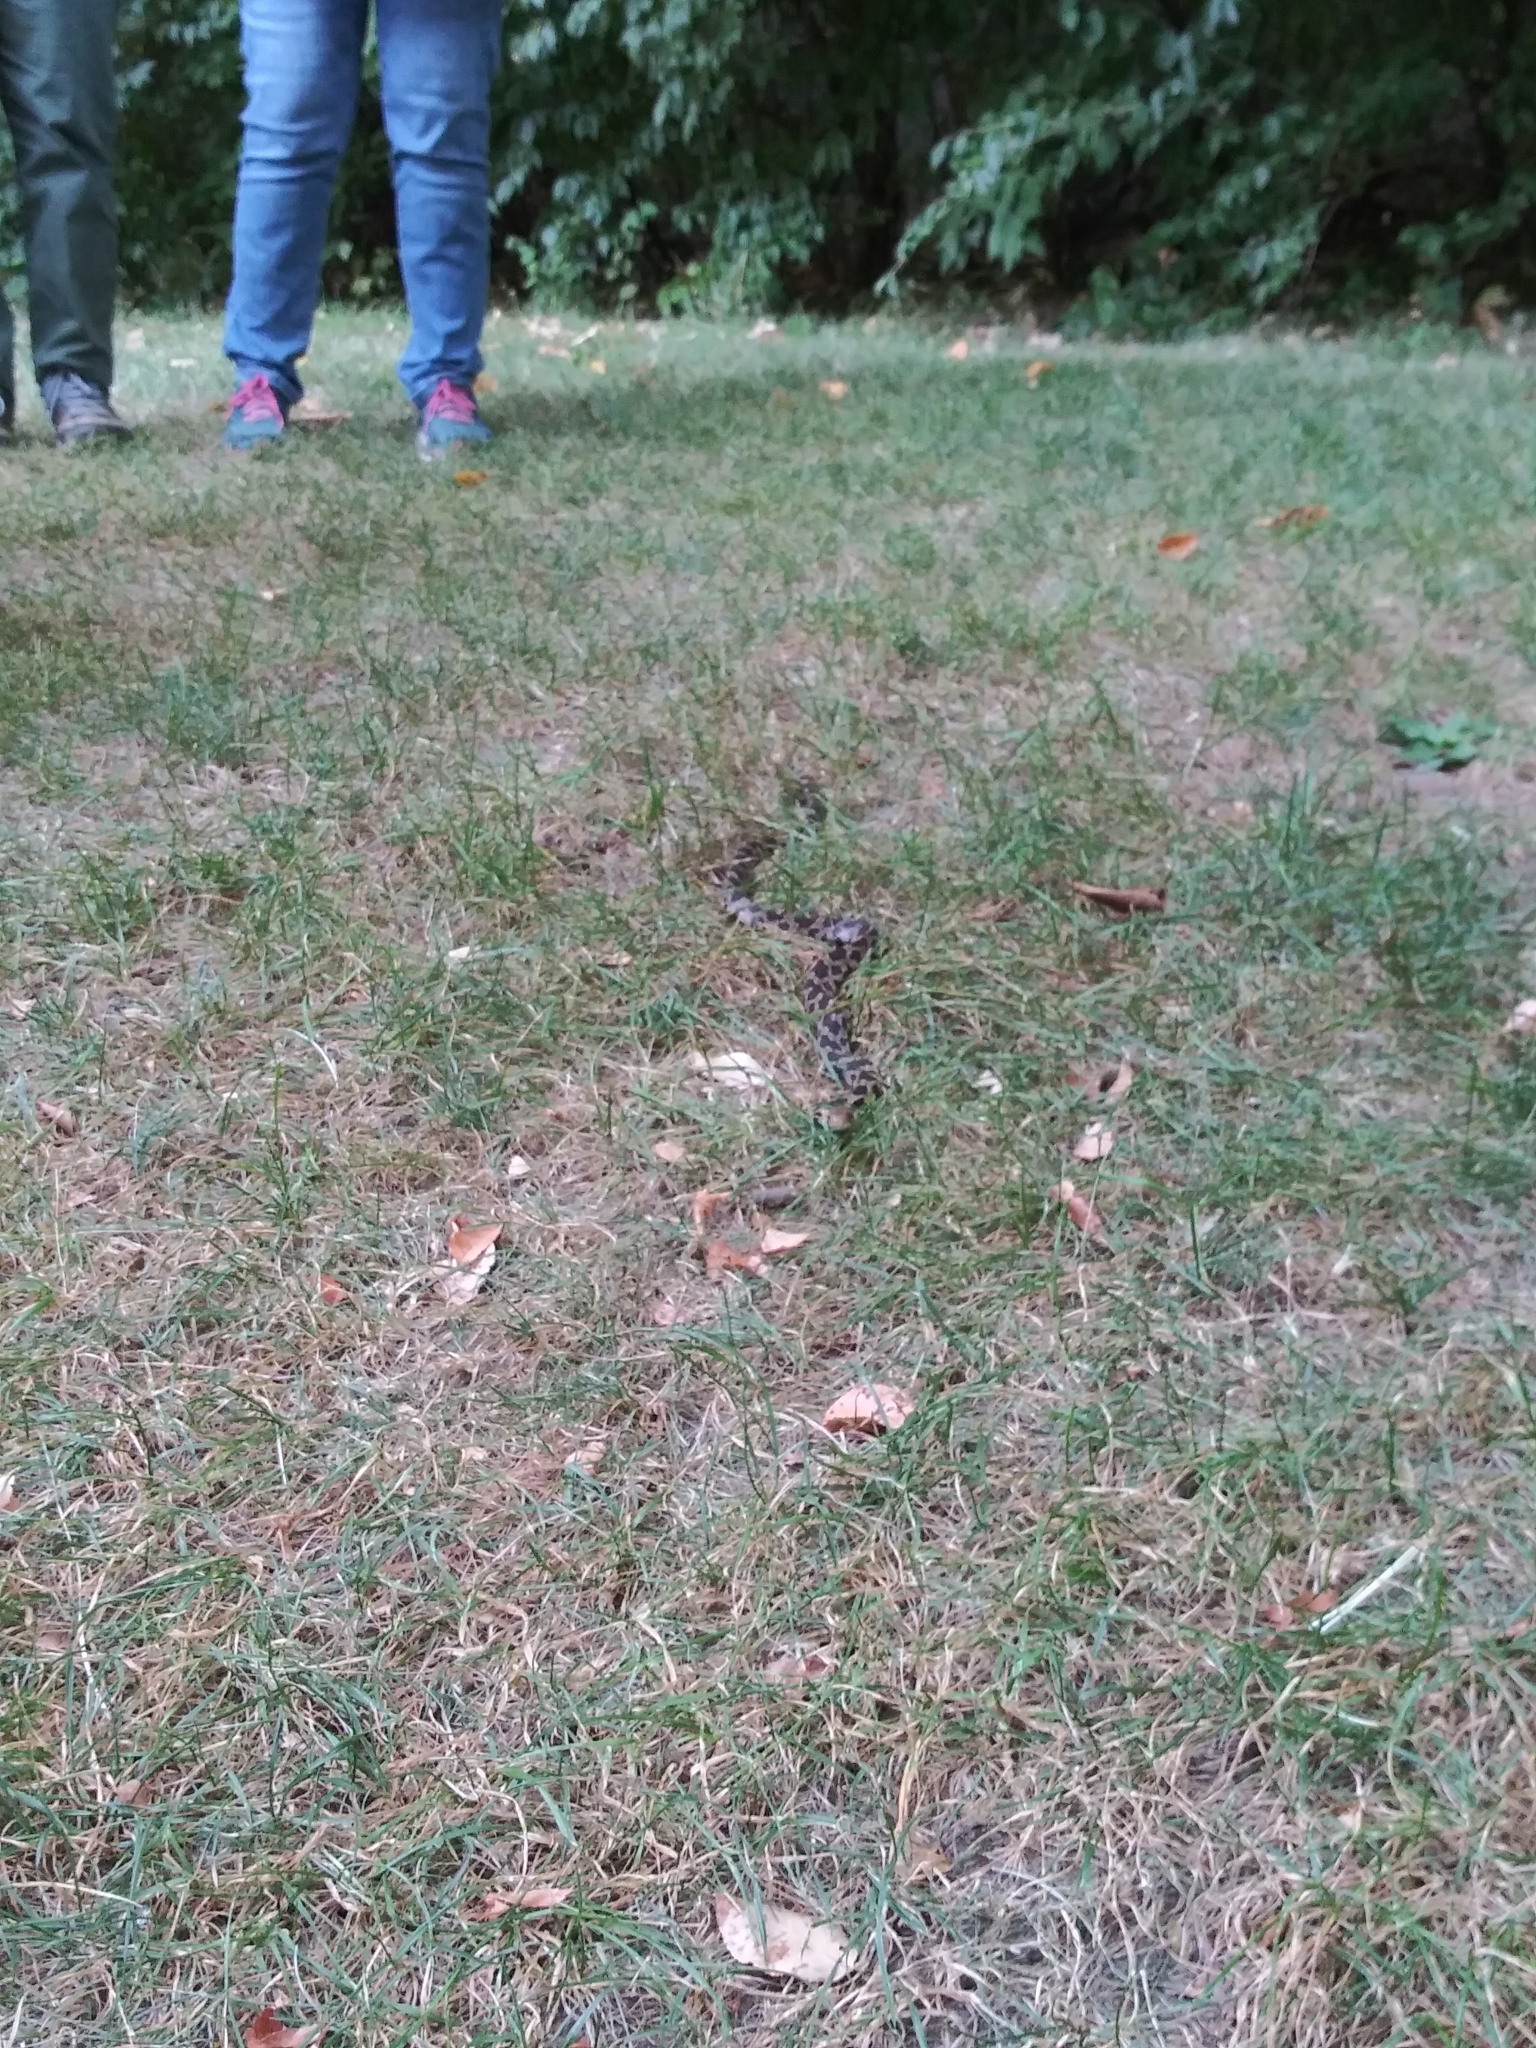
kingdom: Animalia
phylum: Chordata
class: Squamata
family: Colubridae
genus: Pantherophis
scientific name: Pantherophis vulpinus
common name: Eastern fox snake
